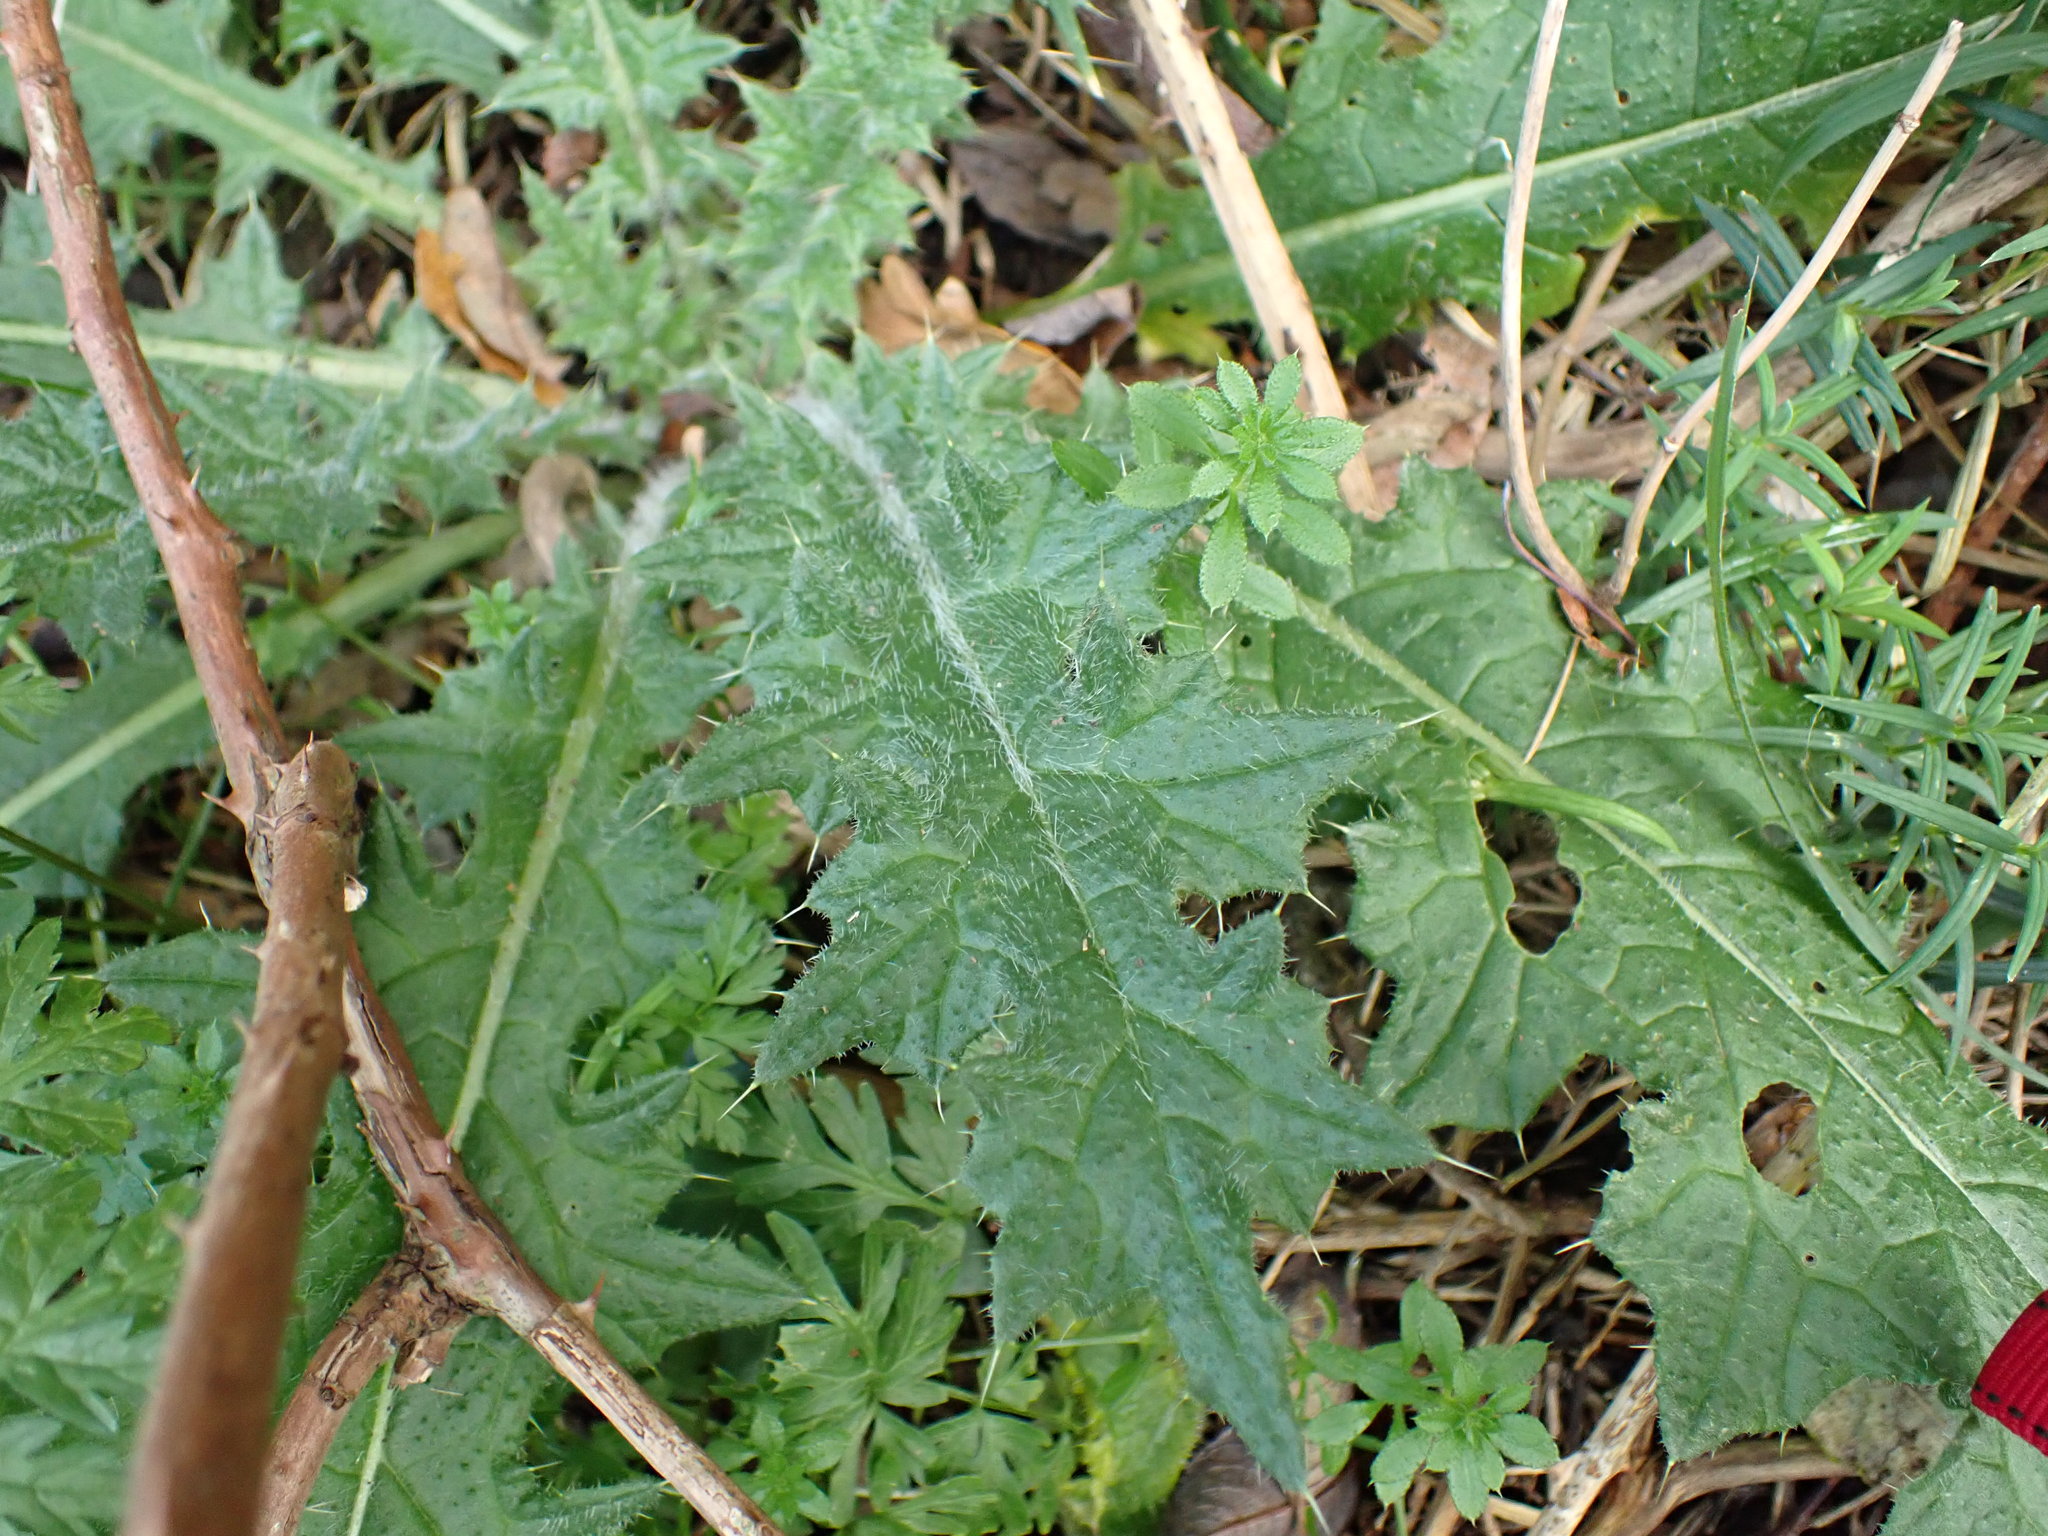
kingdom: Plantae
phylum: Tracheophyta
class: Magnoliopsida
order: Asterales
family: Asteraceae
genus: Cirsium
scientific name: Cirsium vulgare
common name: Bull thistle
